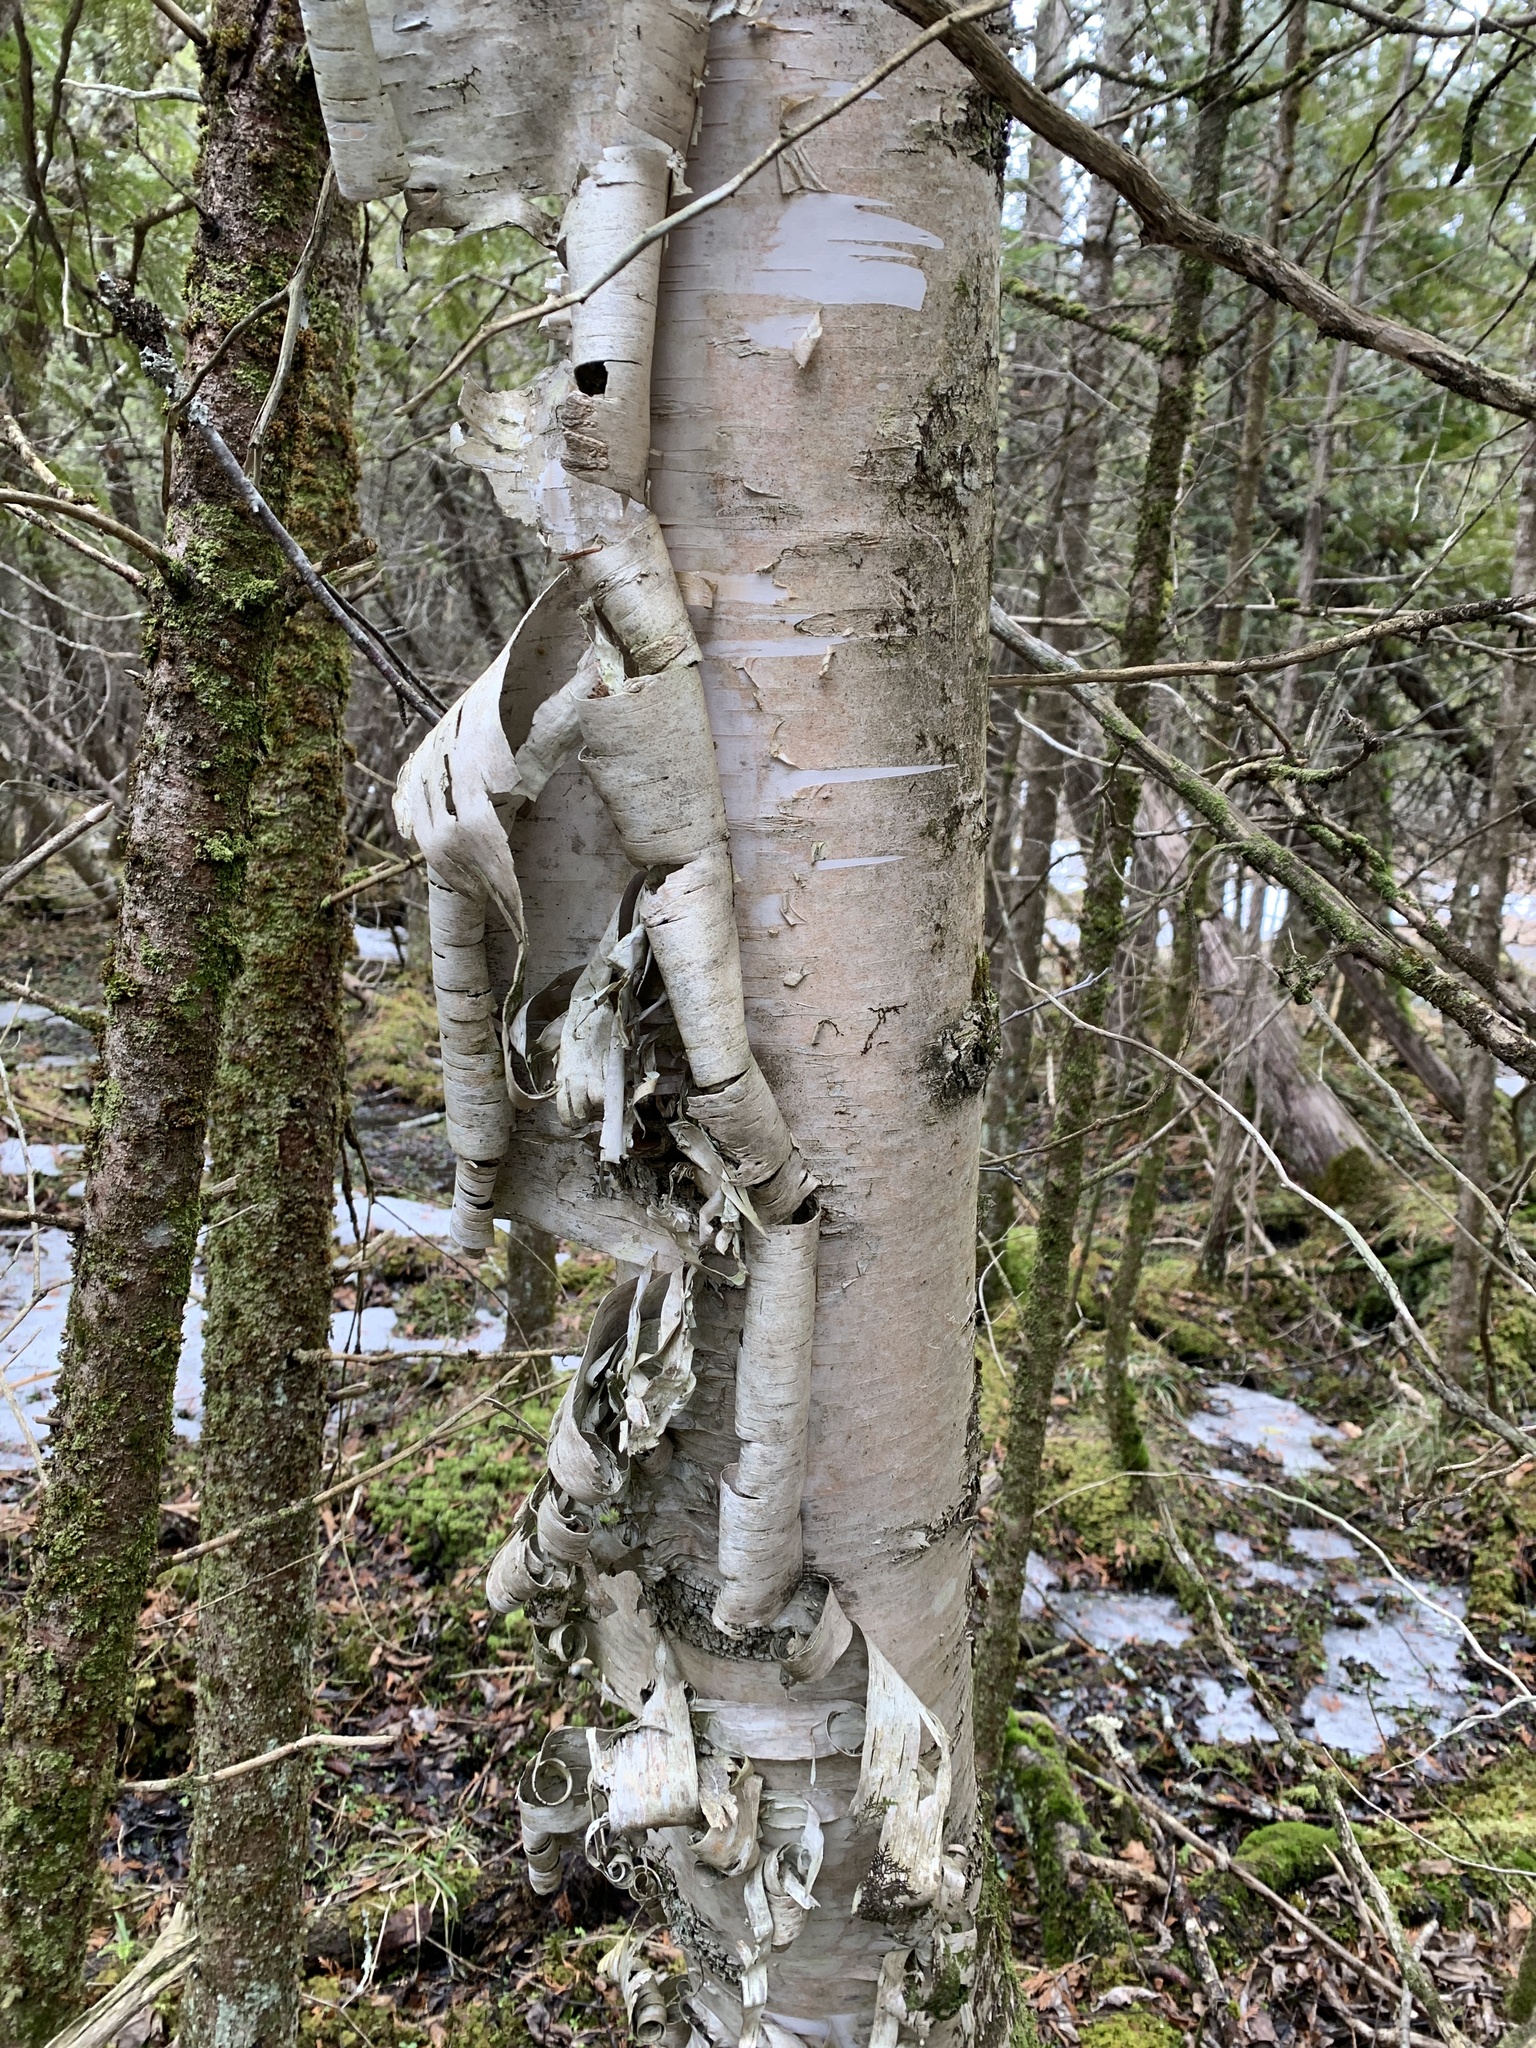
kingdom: Plantae
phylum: Tracheophyta
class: Magnoliopsida
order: Fagales
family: Betulaceae
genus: Betula
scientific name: Betula papyrifera
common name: Paper birch
